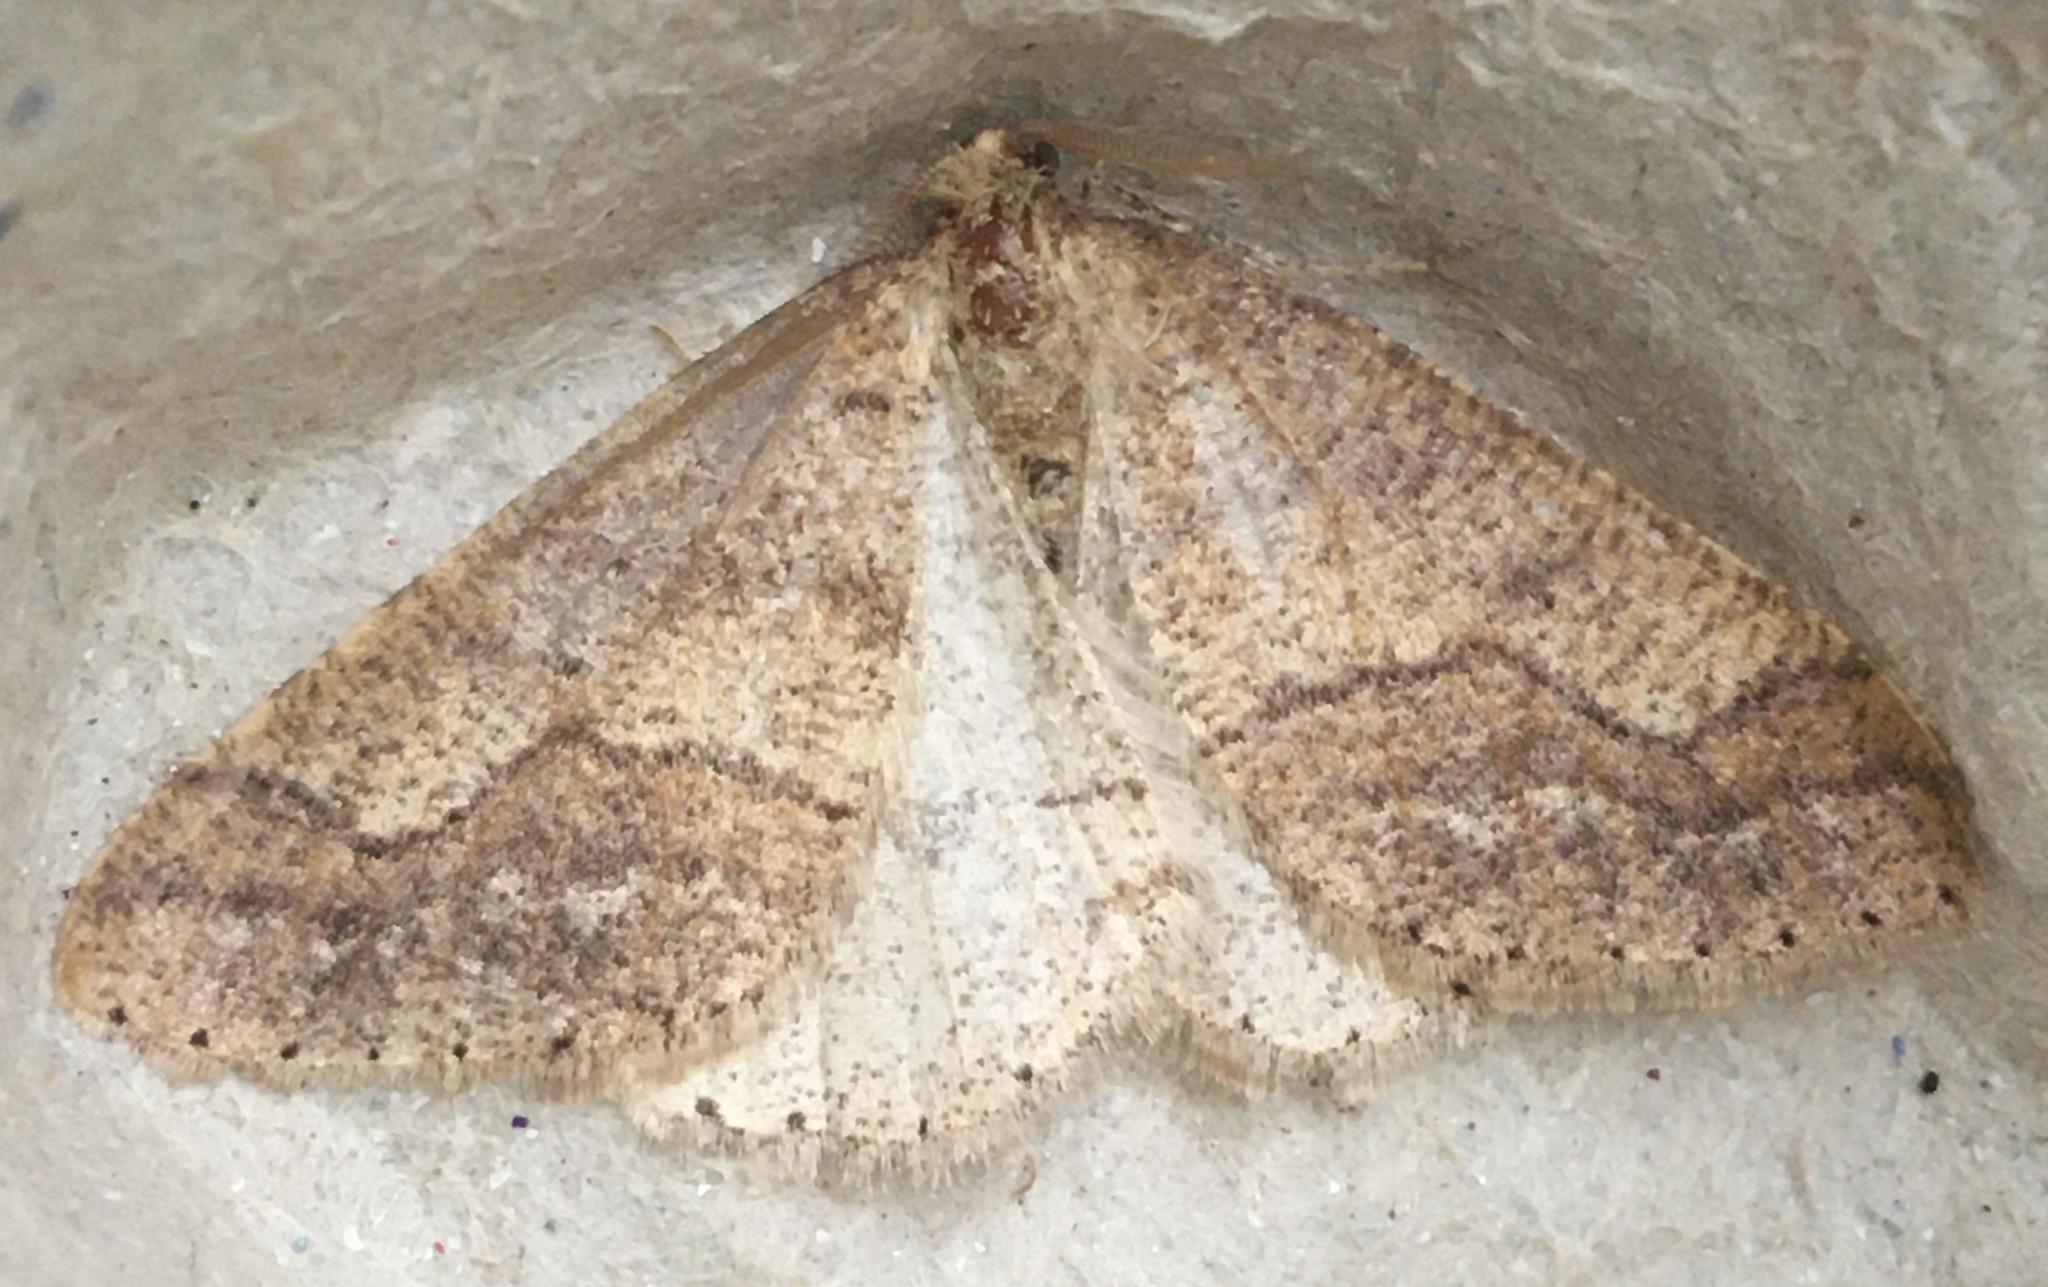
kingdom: Animalia
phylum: Arthropoda
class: Insecta
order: Lepidoptera
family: Geometridae
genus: Agriopis
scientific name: Agriopis marginaria
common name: Dotted border
